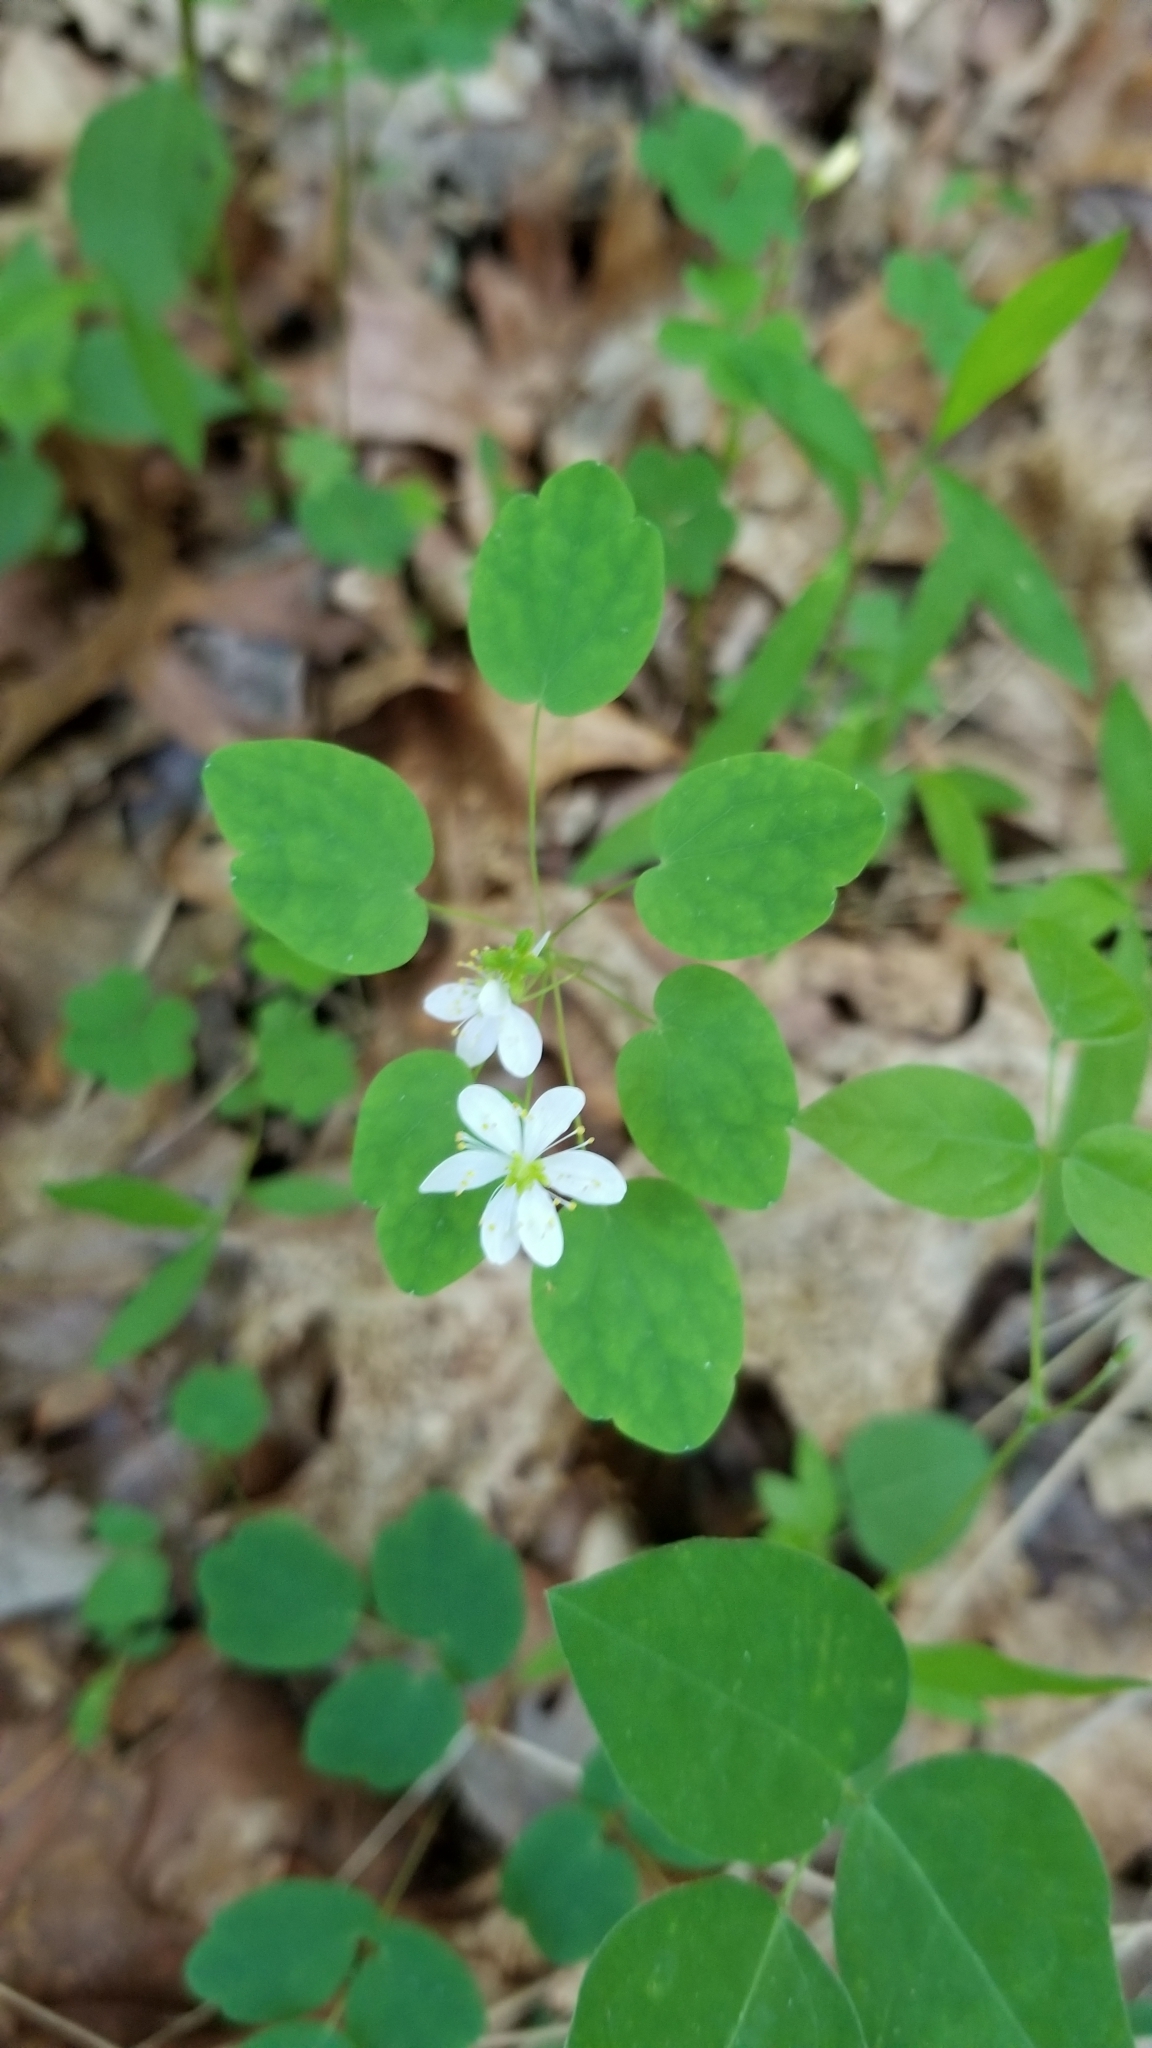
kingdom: Plantae
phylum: Tracheophyta
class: Magnoliopsida
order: Ranunculales
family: Ranunculaceae
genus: Thalictrum
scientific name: Thalictrum thalictroides
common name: Rue-anemone
